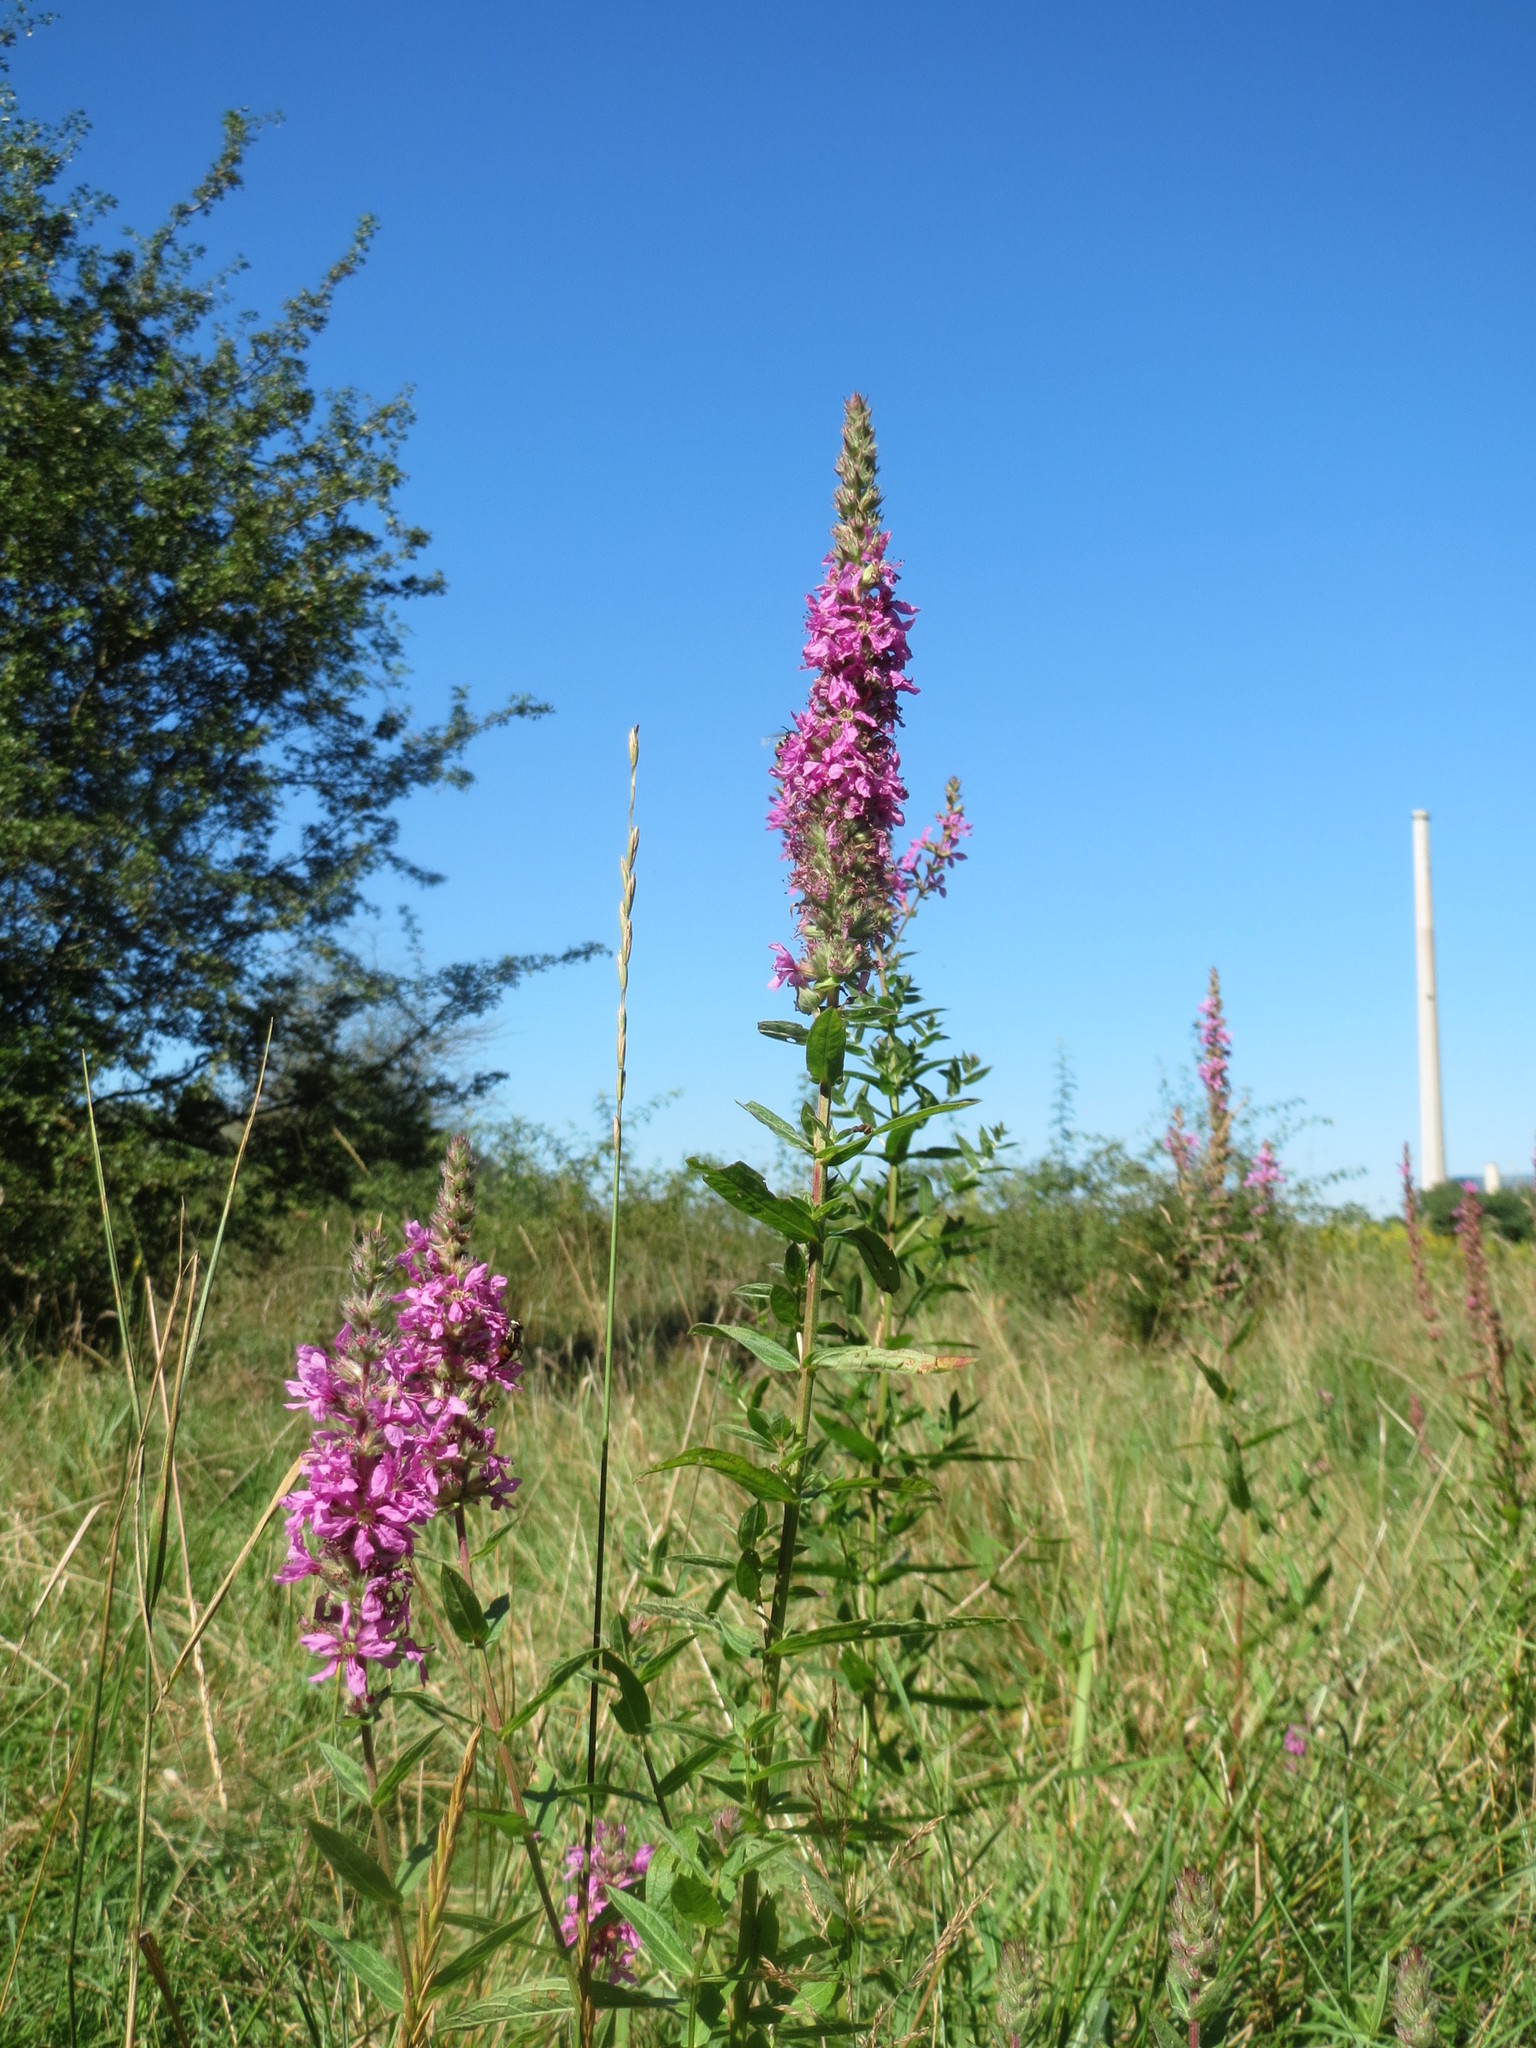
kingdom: Plantae
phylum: Tracheophyta
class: Magnoliopsida
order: Myrtales
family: Lythraceae
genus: Lythrum
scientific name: Lythrum salicaria
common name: Purple loosestrife
